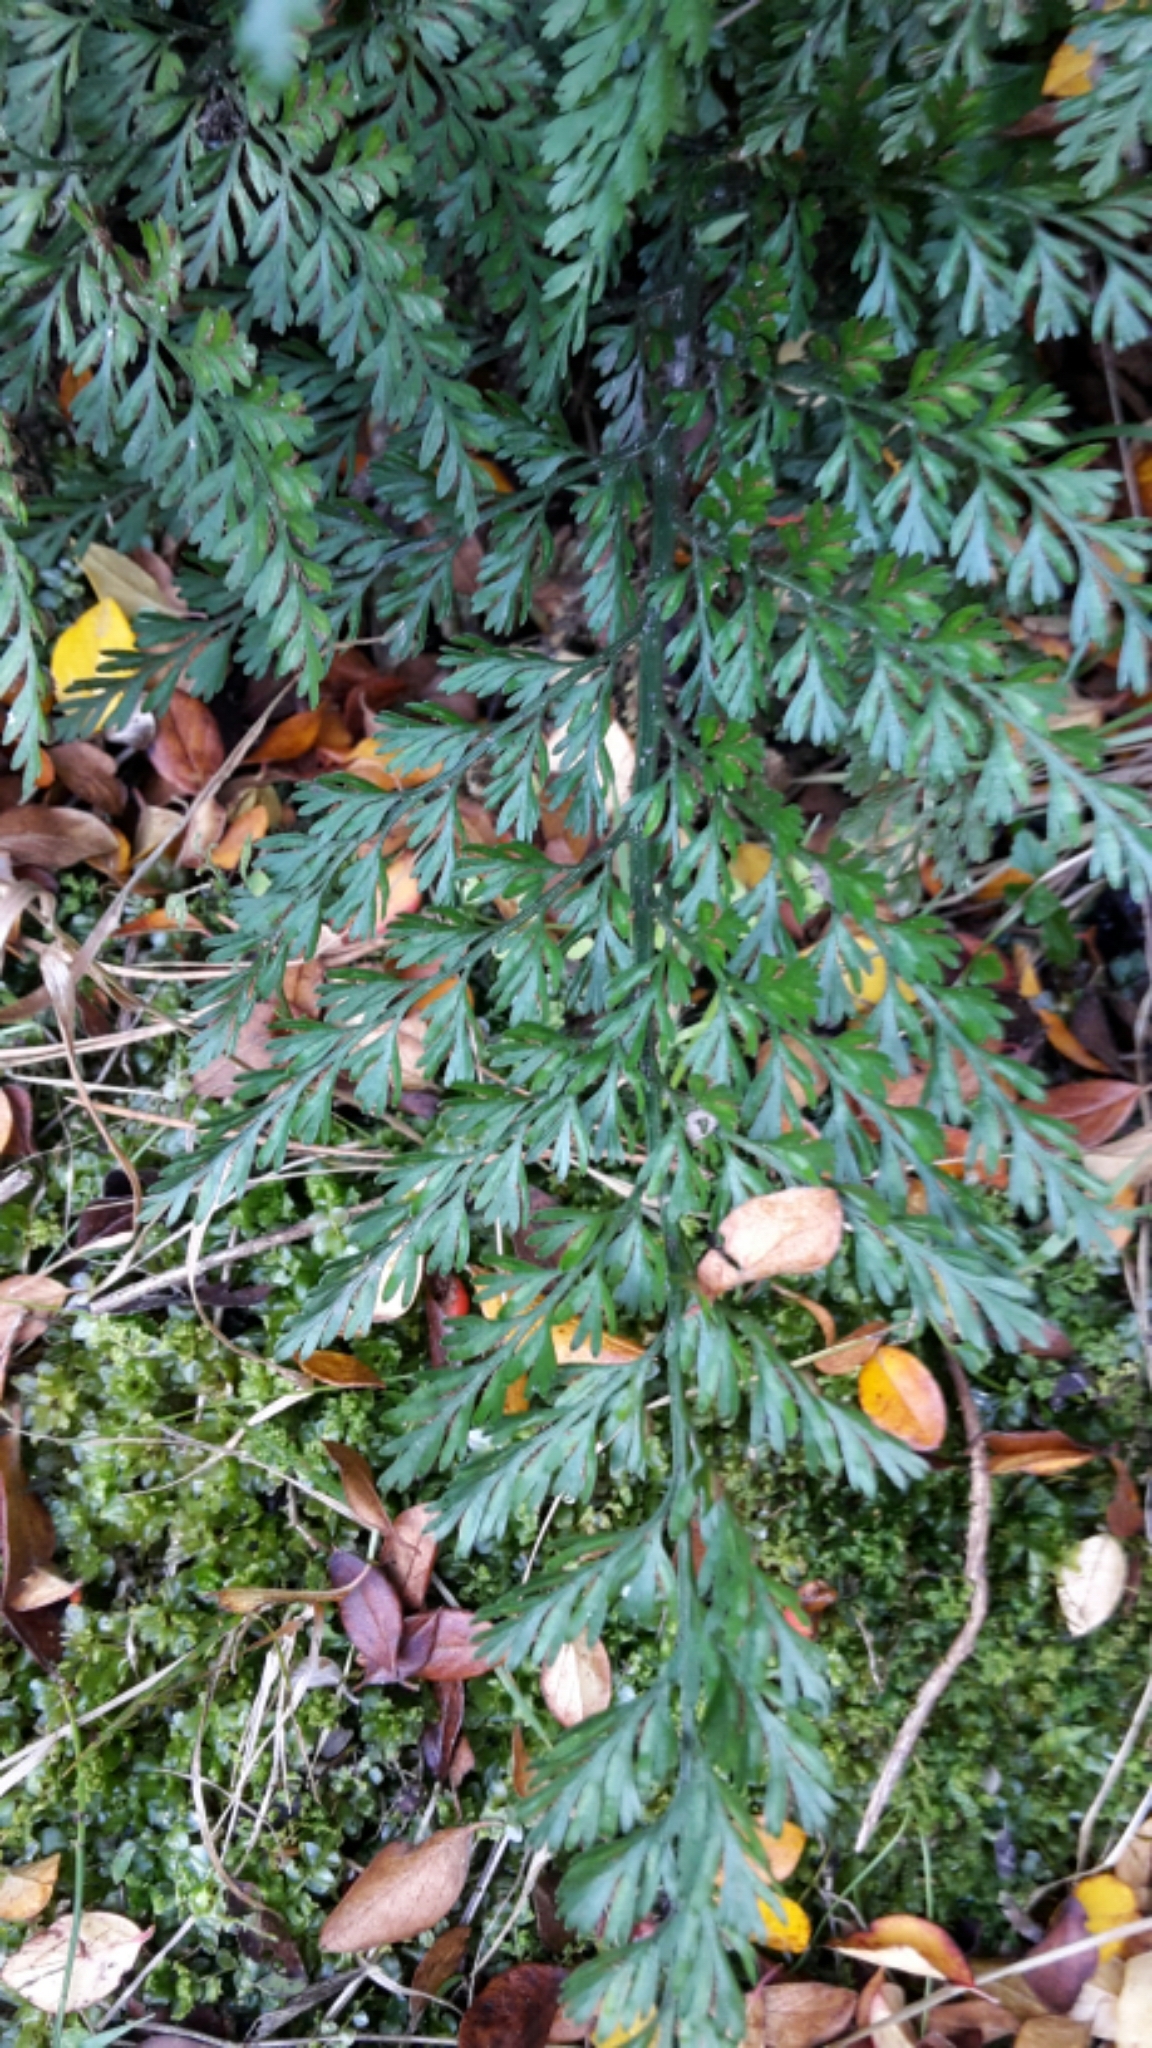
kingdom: Plantae
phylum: Tracheophyta
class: Polypodiopsida
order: Polypodiales
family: Aspleniaceae
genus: Asplenium
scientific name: Asplenium richardii
